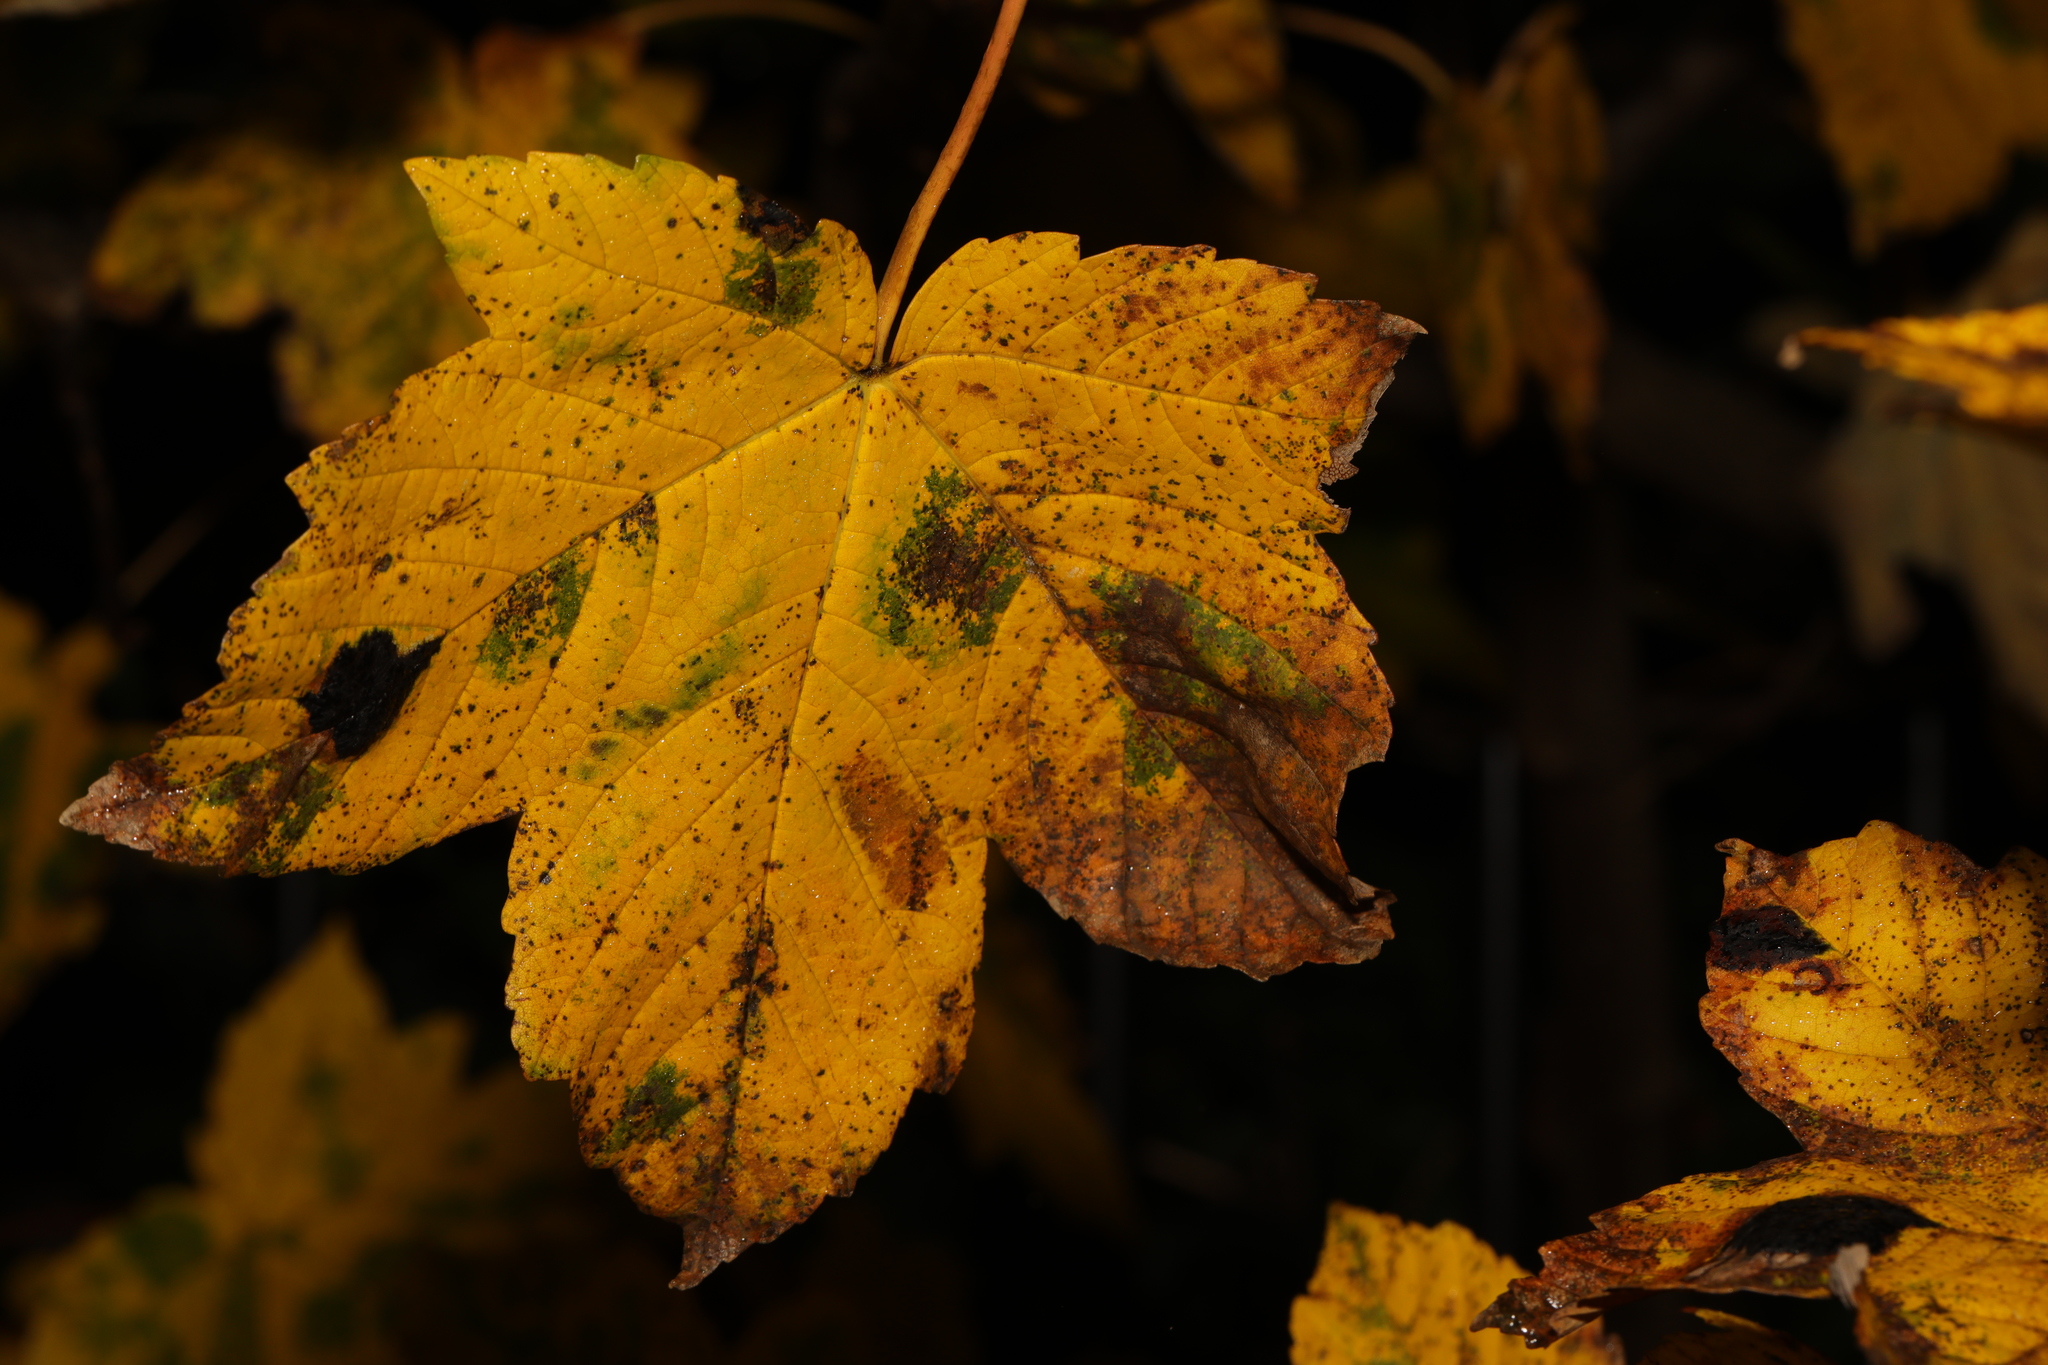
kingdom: Fungi
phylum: Ascomycota
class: Leotiomycetes
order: Rhytismatales
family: Rhytismataceae
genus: Rhytisma
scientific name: Rhytisma acerinum
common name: European tar spot
